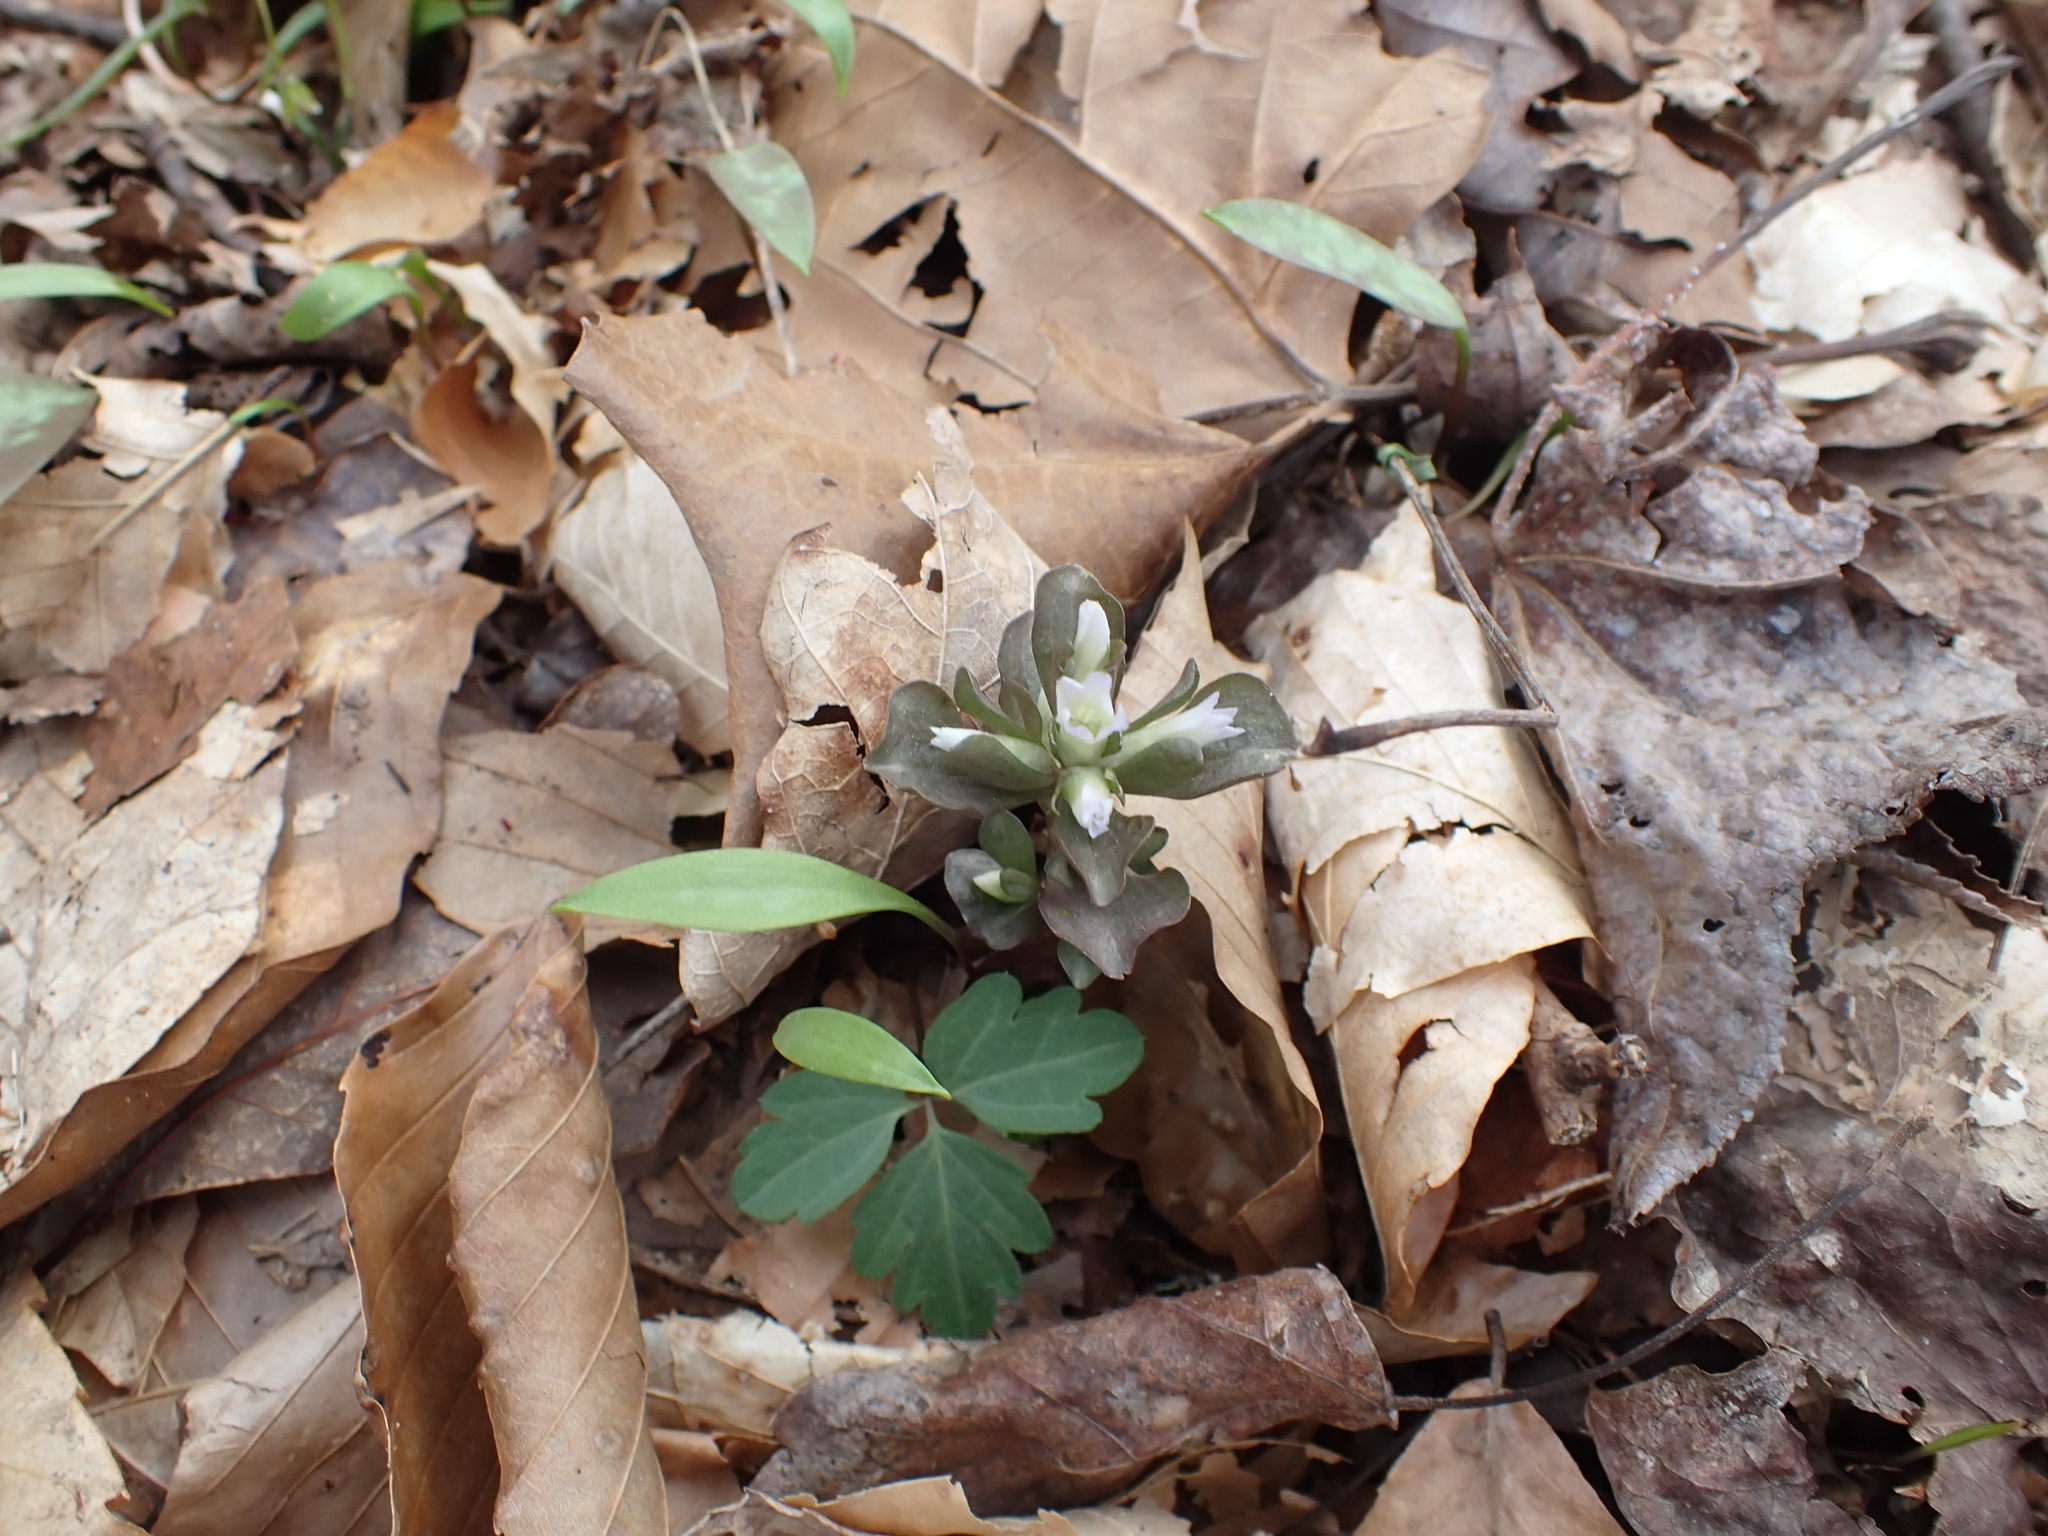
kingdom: Plantae
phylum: Tracheophyta
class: Magnoliopsida
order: Gentianales
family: Gentianaceae
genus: Obolaria
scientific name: Obolaria virginica
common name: Pennywort
